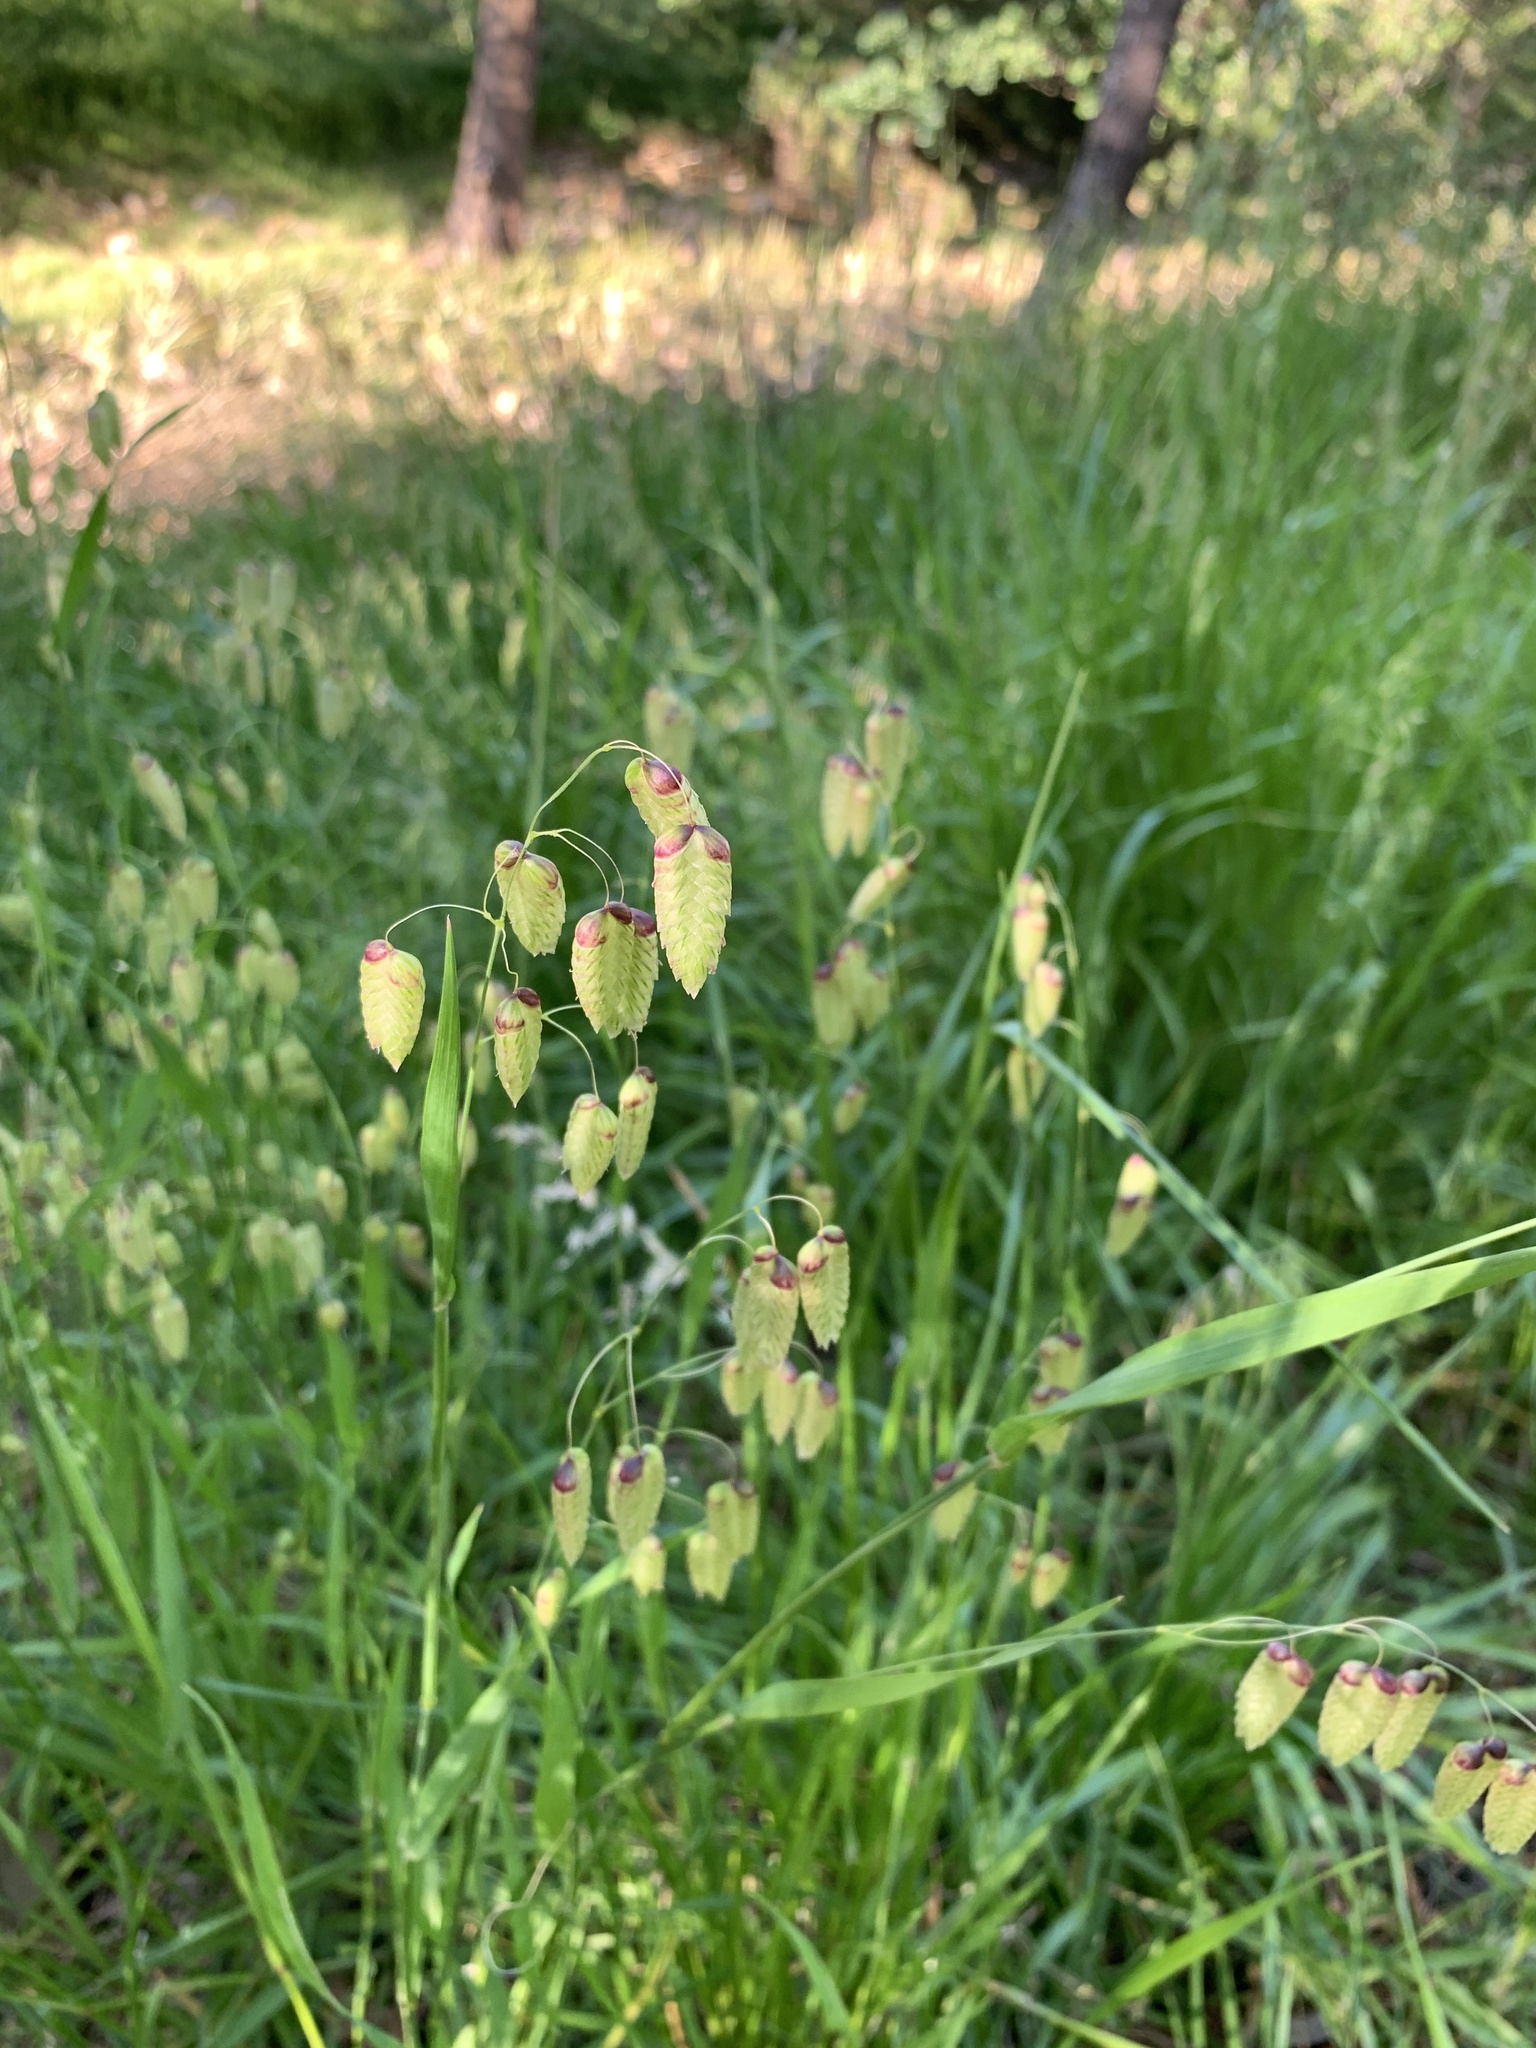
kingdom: Plantae
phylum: Tracheophyta
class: Liliopsida
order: Poales
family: Poaceae
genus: Briza
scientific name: Briza maxima
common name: Big quakinggrass
